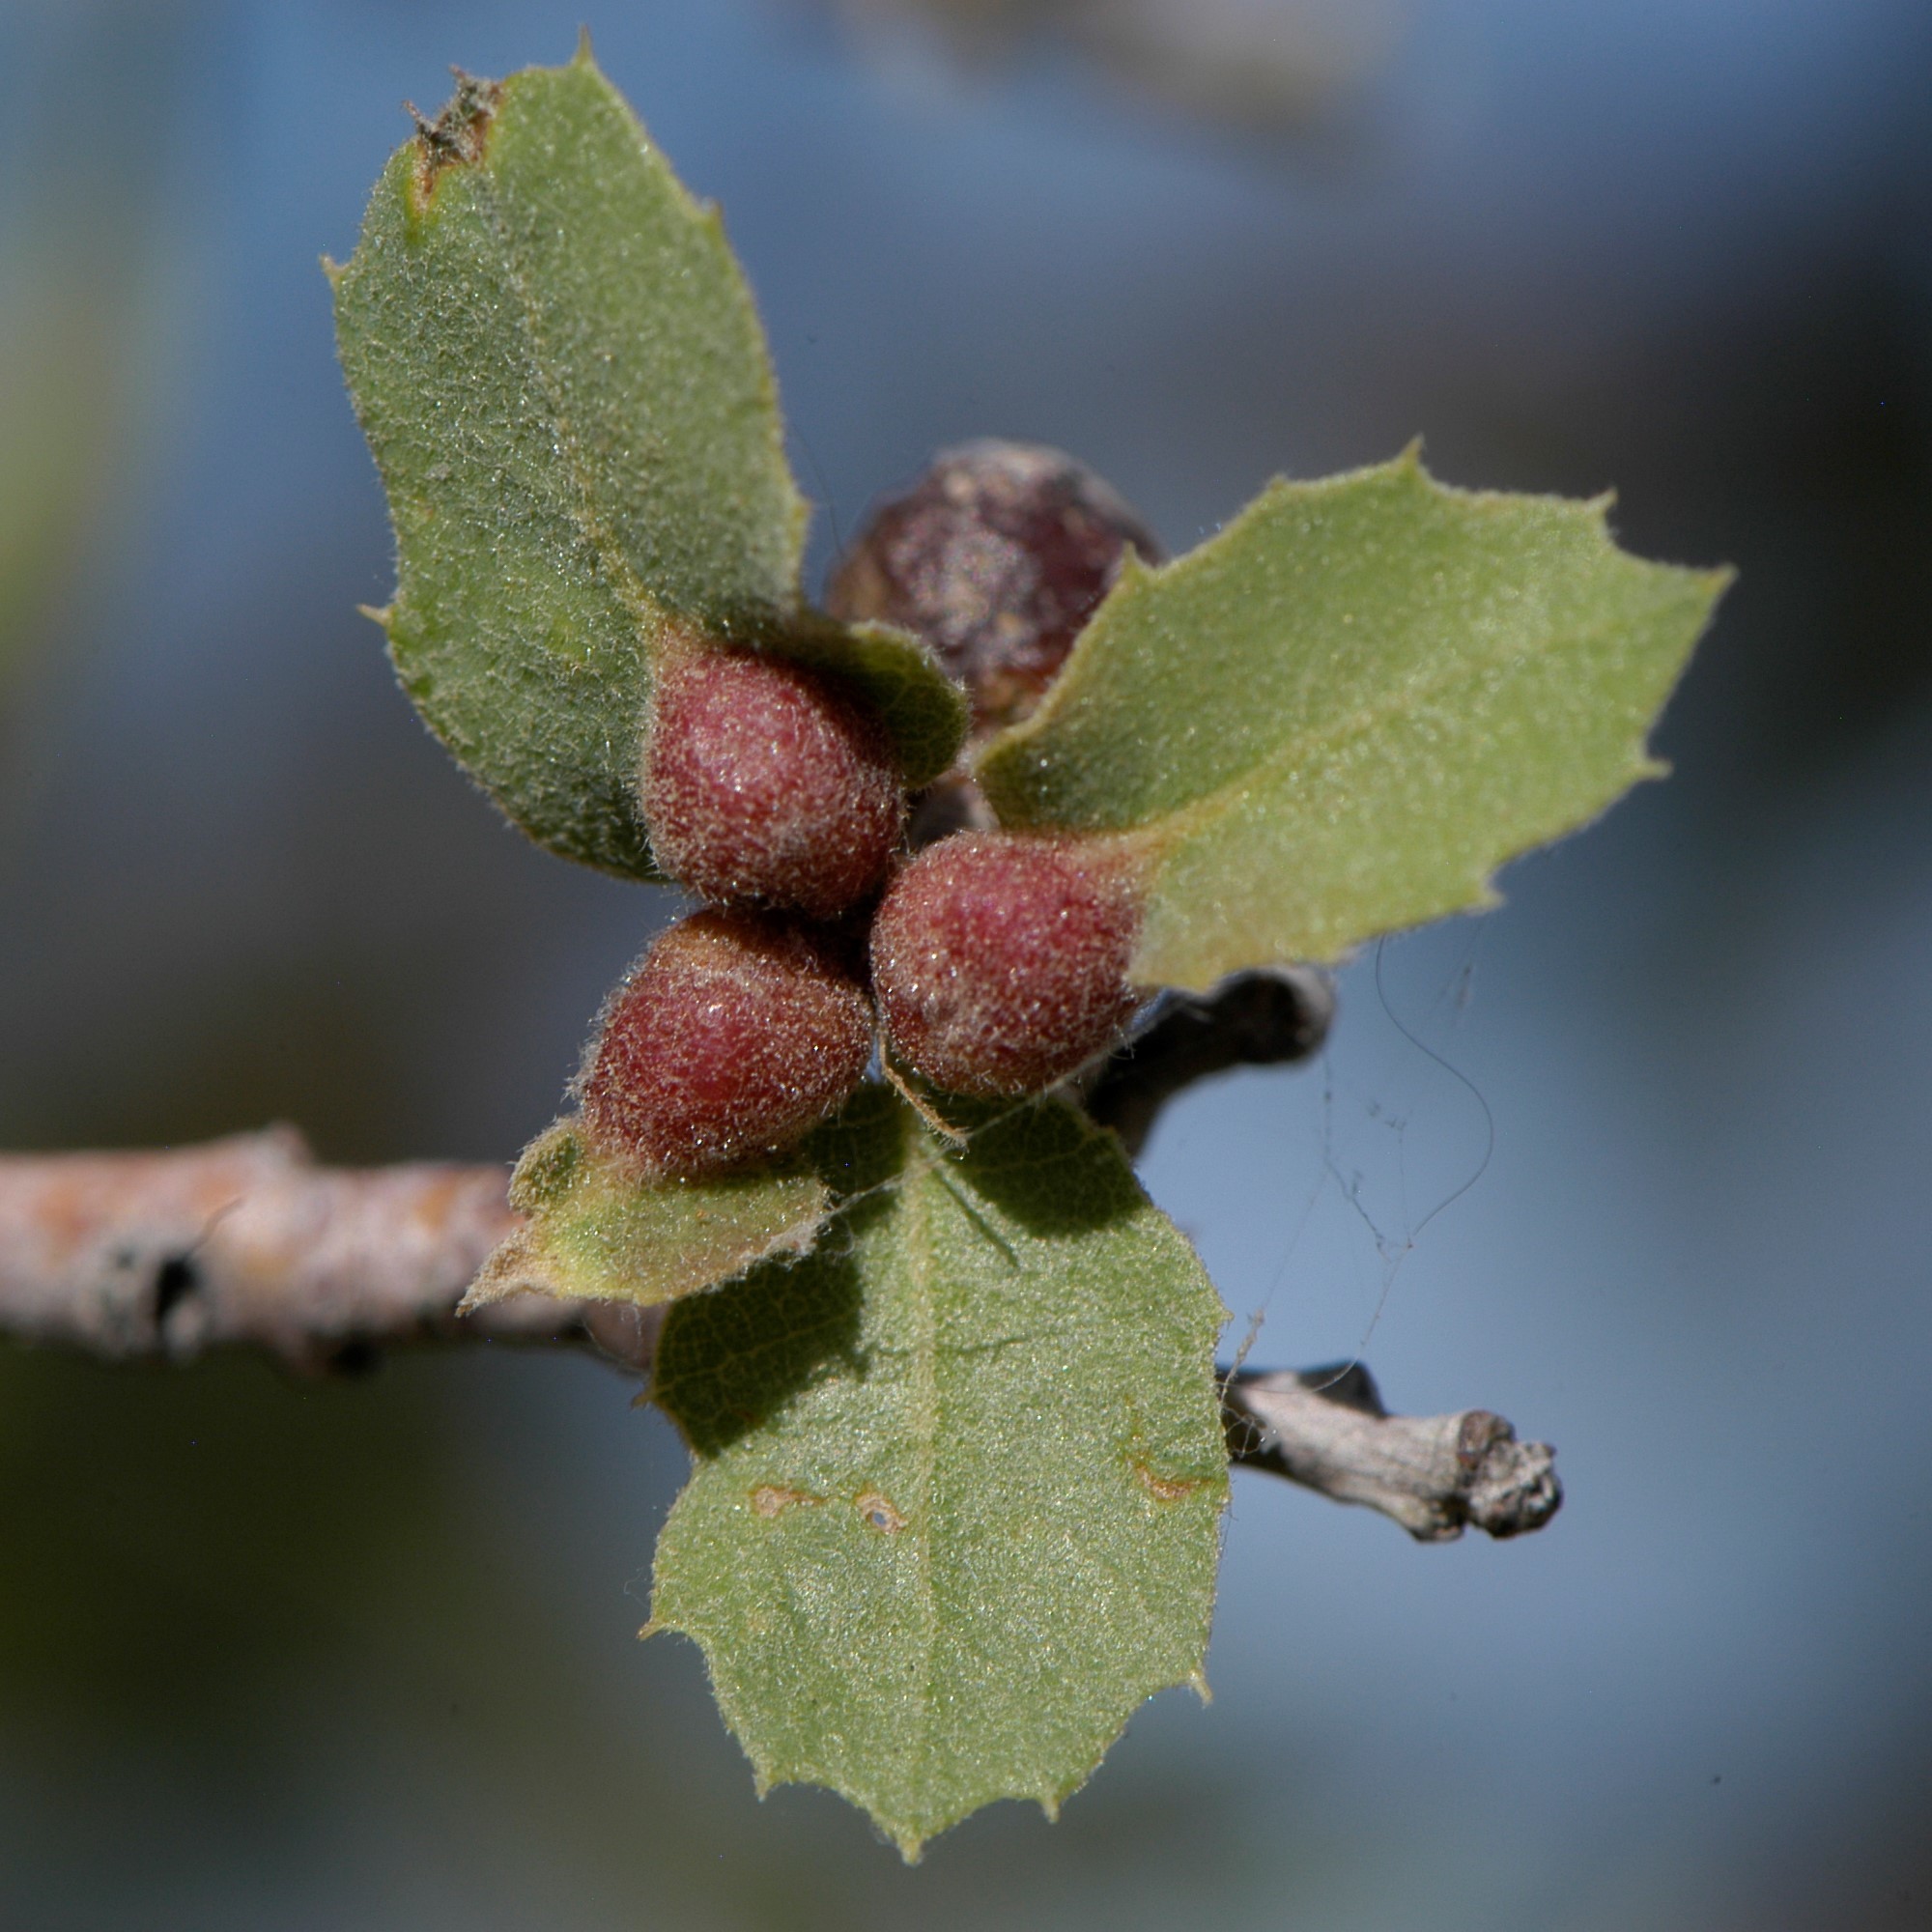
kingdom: Animalia
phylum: Arthropoda
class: Insecta
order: Hymenoptera
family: Cynipidae
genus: Andricus
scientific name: Andricus
